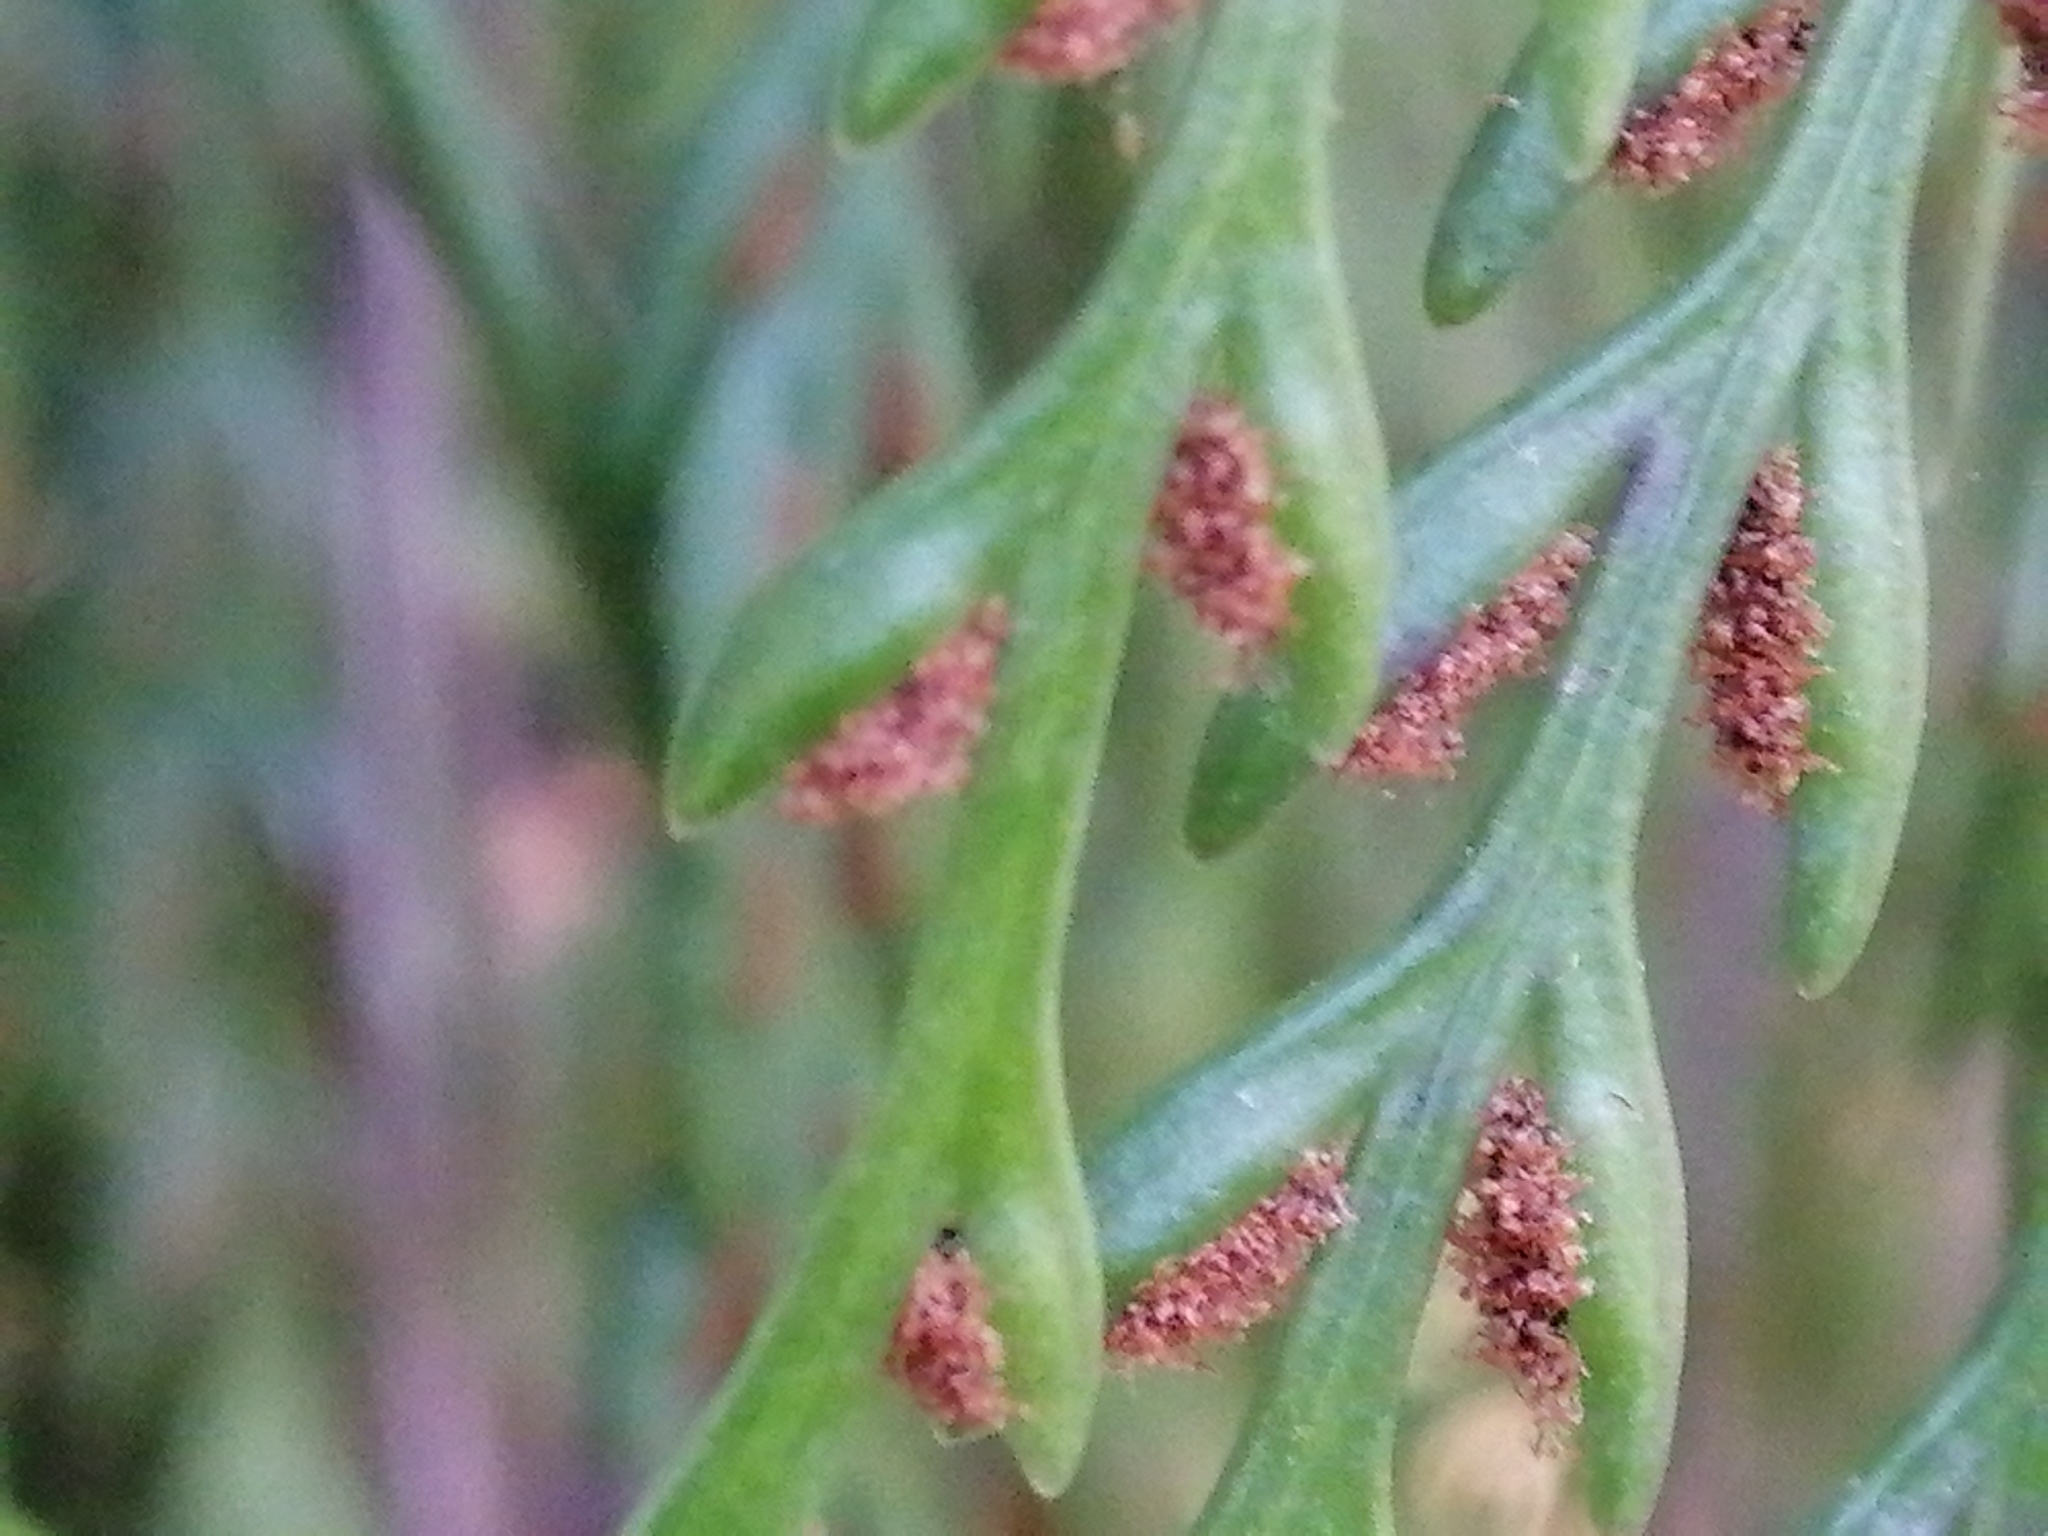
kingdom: Plantae
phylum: Tracheophyta
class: Polypodiopsida
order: Polypodiales
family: Aspleniaceae
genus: Asplenium
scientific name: Asplenium flaccidum
